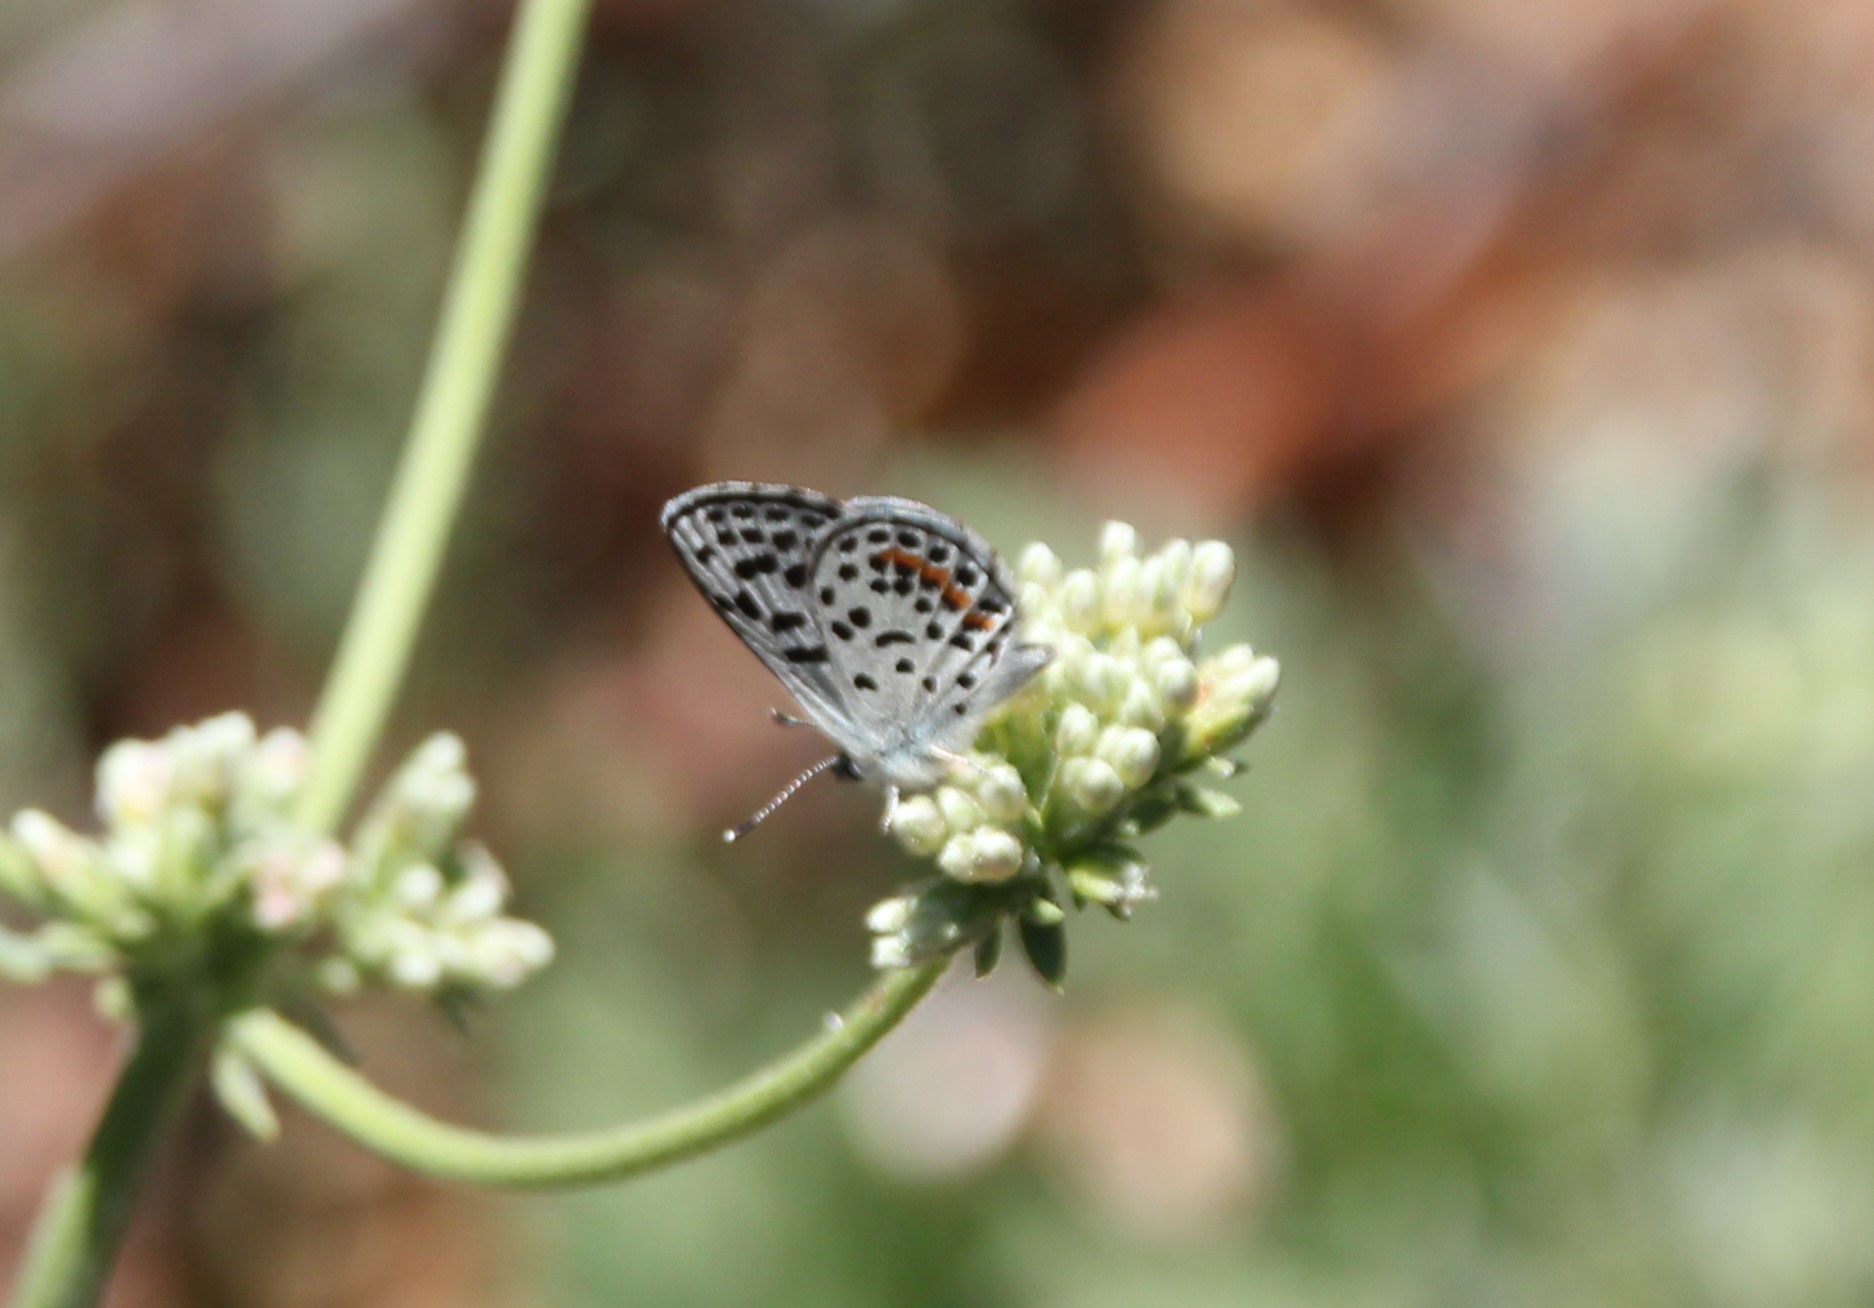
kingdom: Animalia
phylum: Arthropoda
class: Insecta
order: Lepidoptera
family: Lycaenidae
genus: Philotes
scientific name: Philotes bernardino
